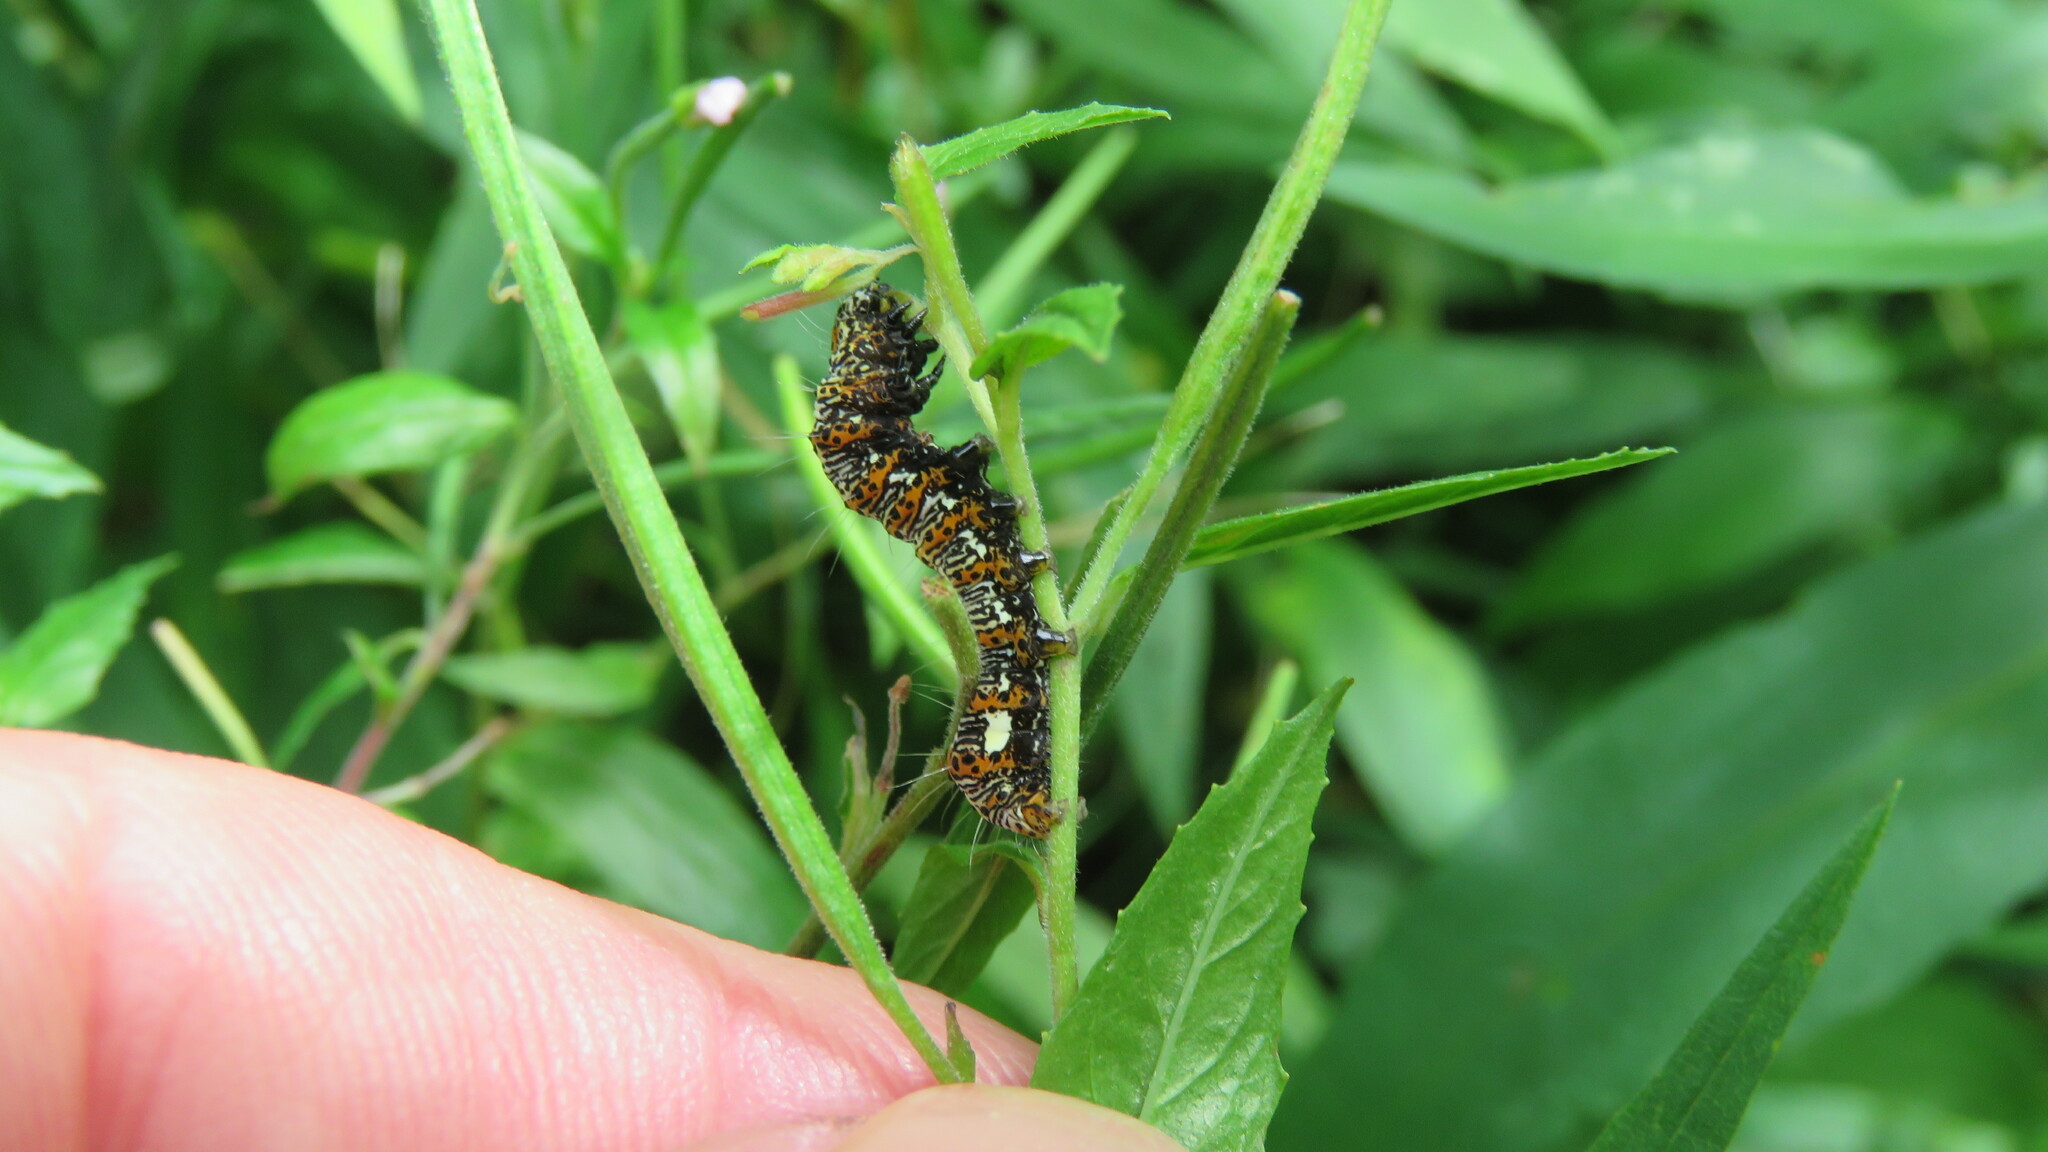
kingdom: Animalia
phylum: Arthropoda
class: Insecta
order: Lepidoptera
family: Noctuidae
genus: Alypia
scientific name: Alypia langtonii
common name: Fireweed caterpillar
